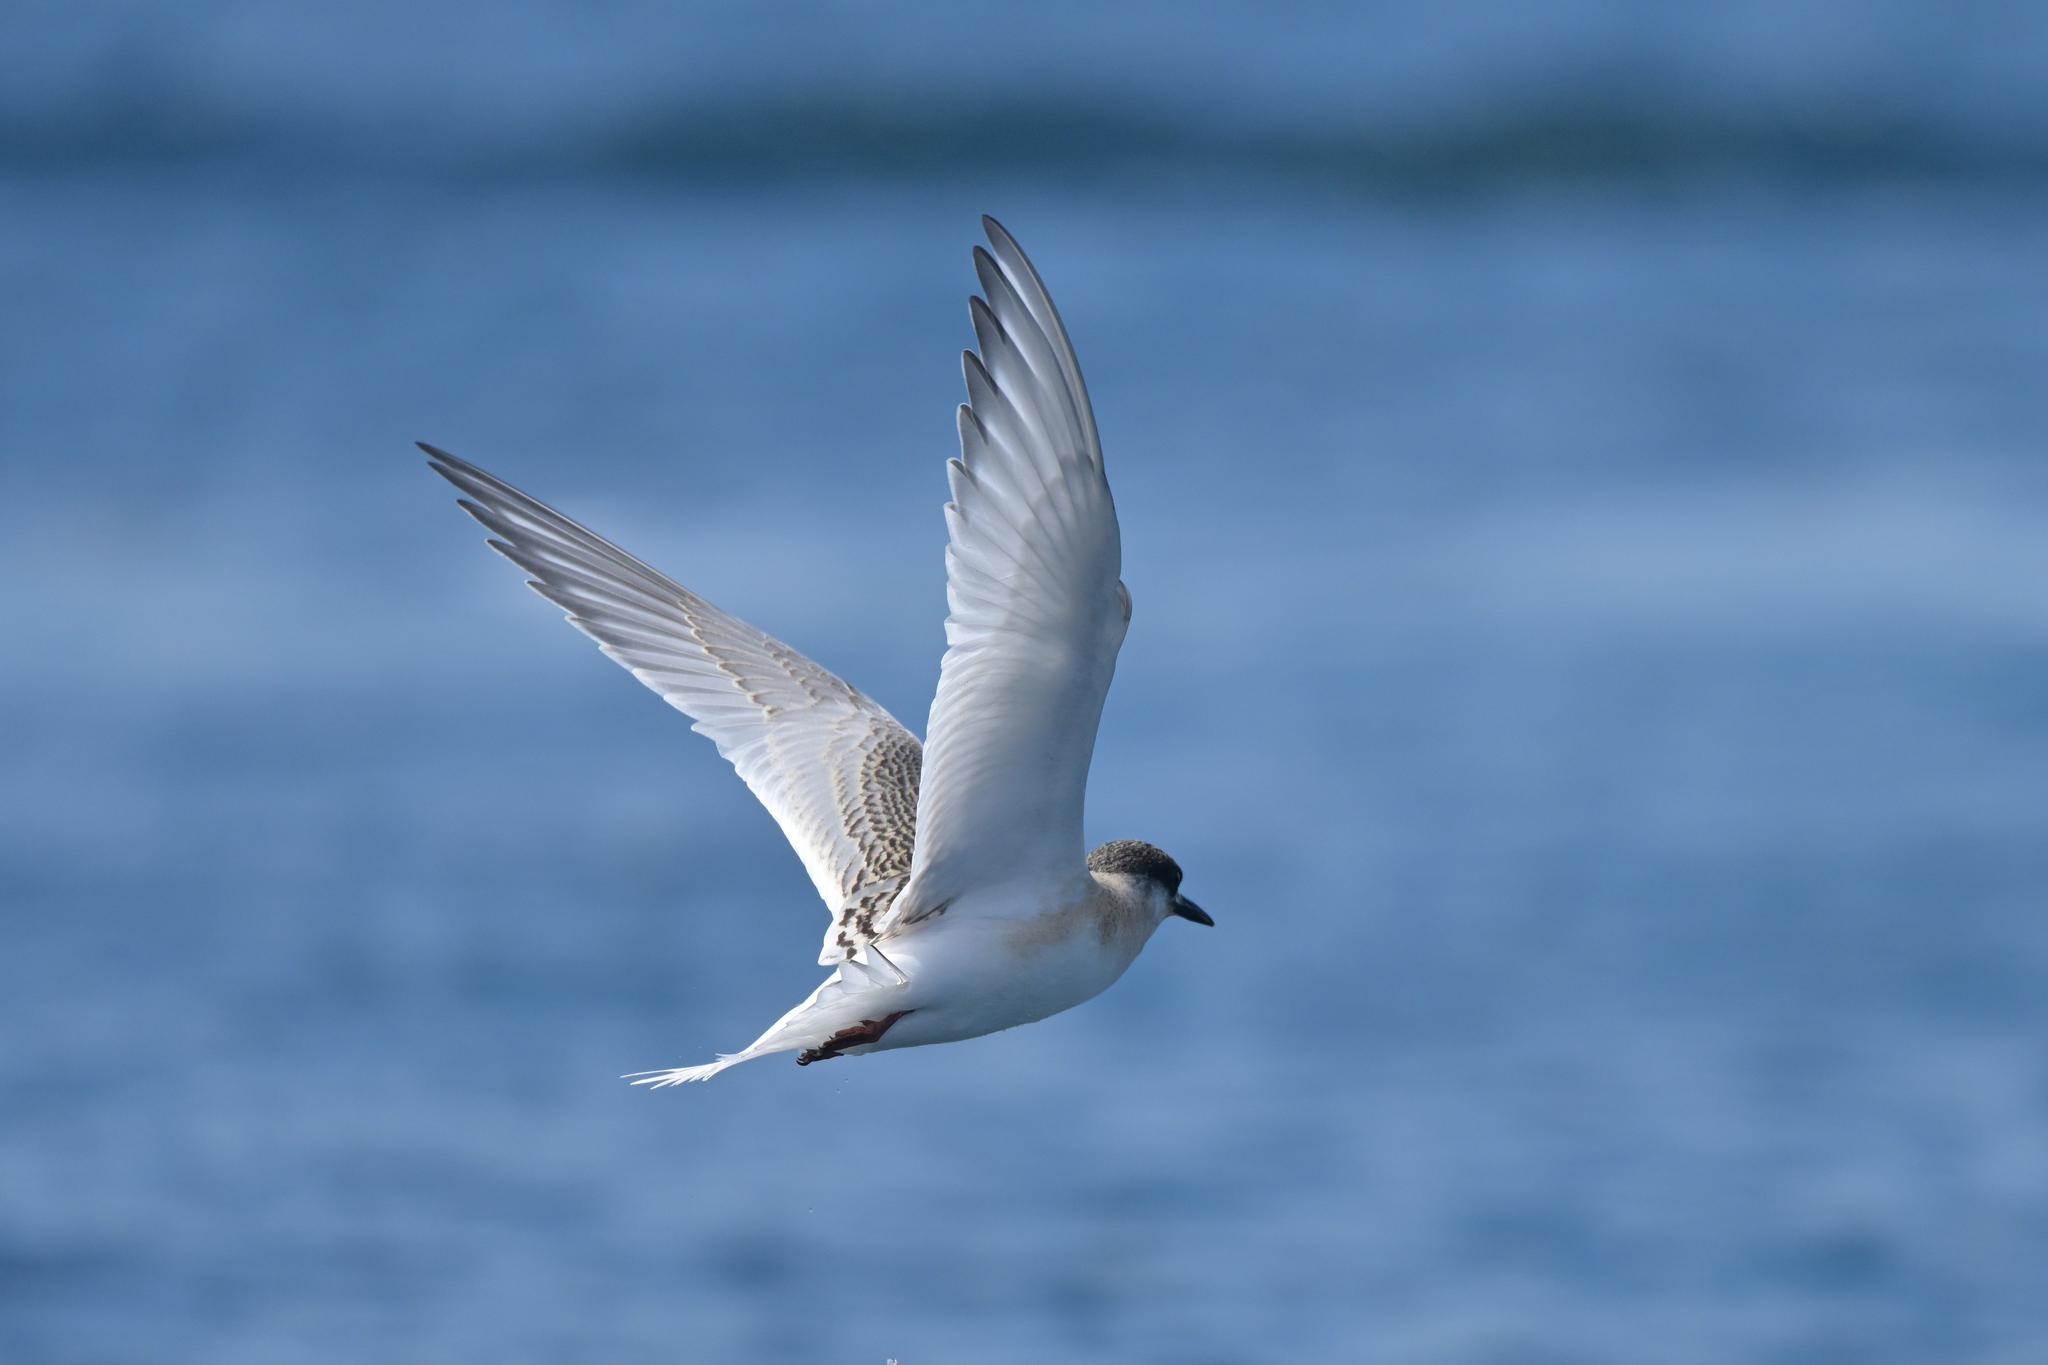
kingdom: Animalia
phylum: Chordata
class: Aves
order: Charadriiformes
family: Laridae
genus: Sterna
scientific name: Sterna vittata
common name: Antarctic tern
